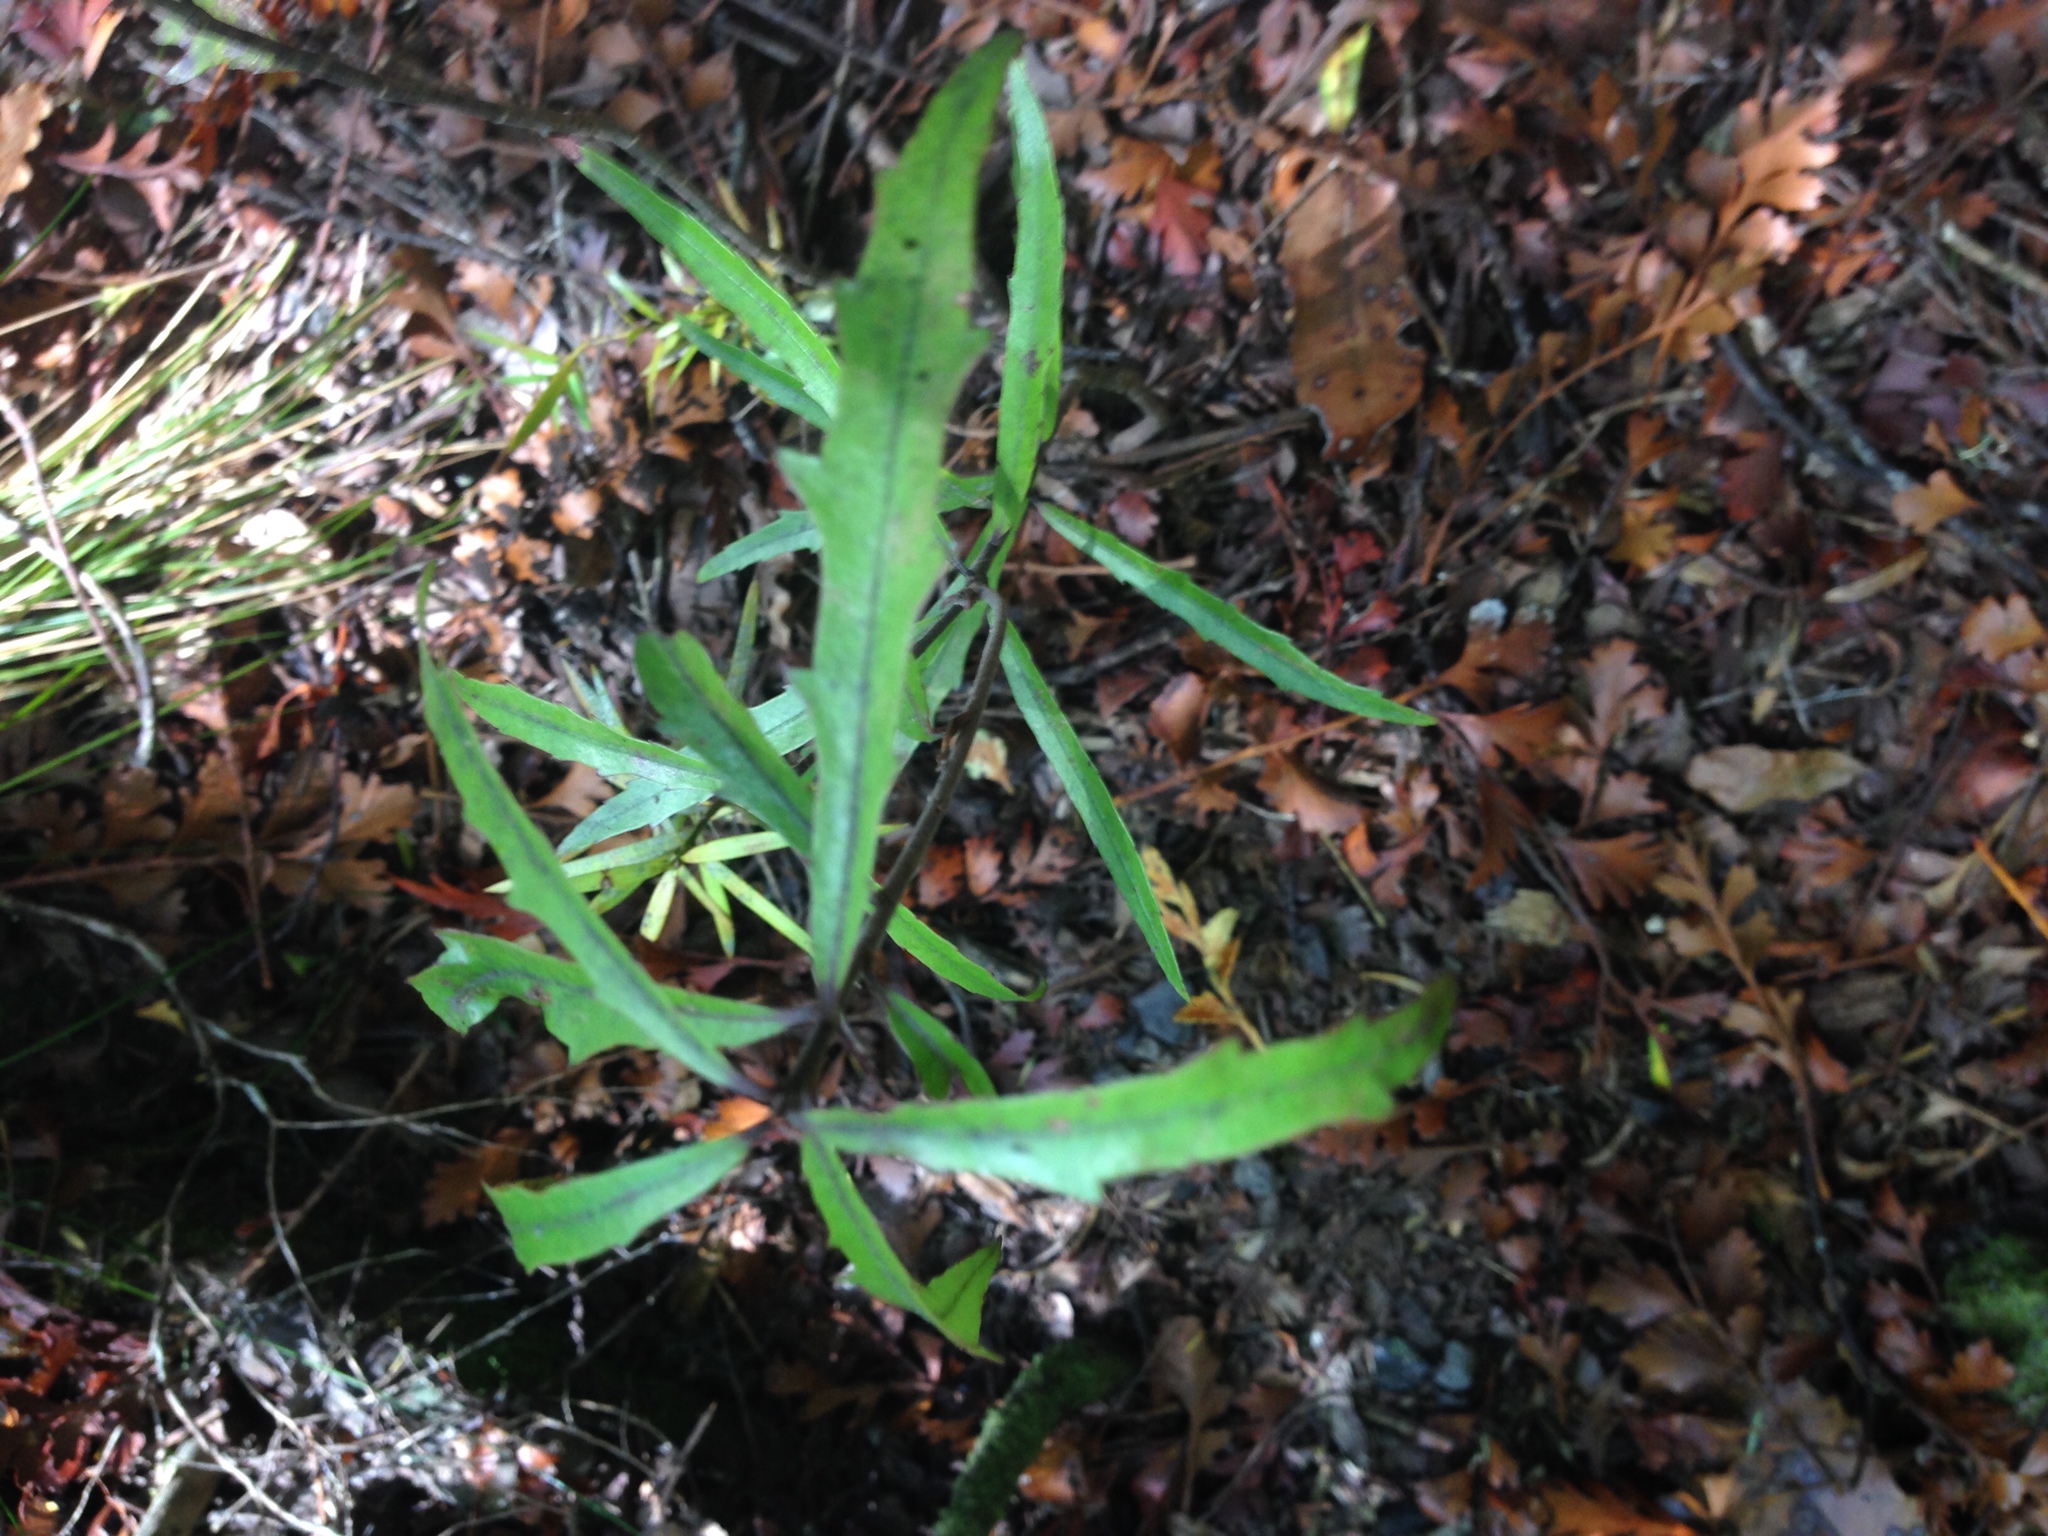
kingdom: Plantae
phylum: Tracheophyta
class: Magnoliopsida
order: Asterales
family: Alseuosmiaceae
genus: Alseuosmia
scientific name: Alseuosmia banksii
